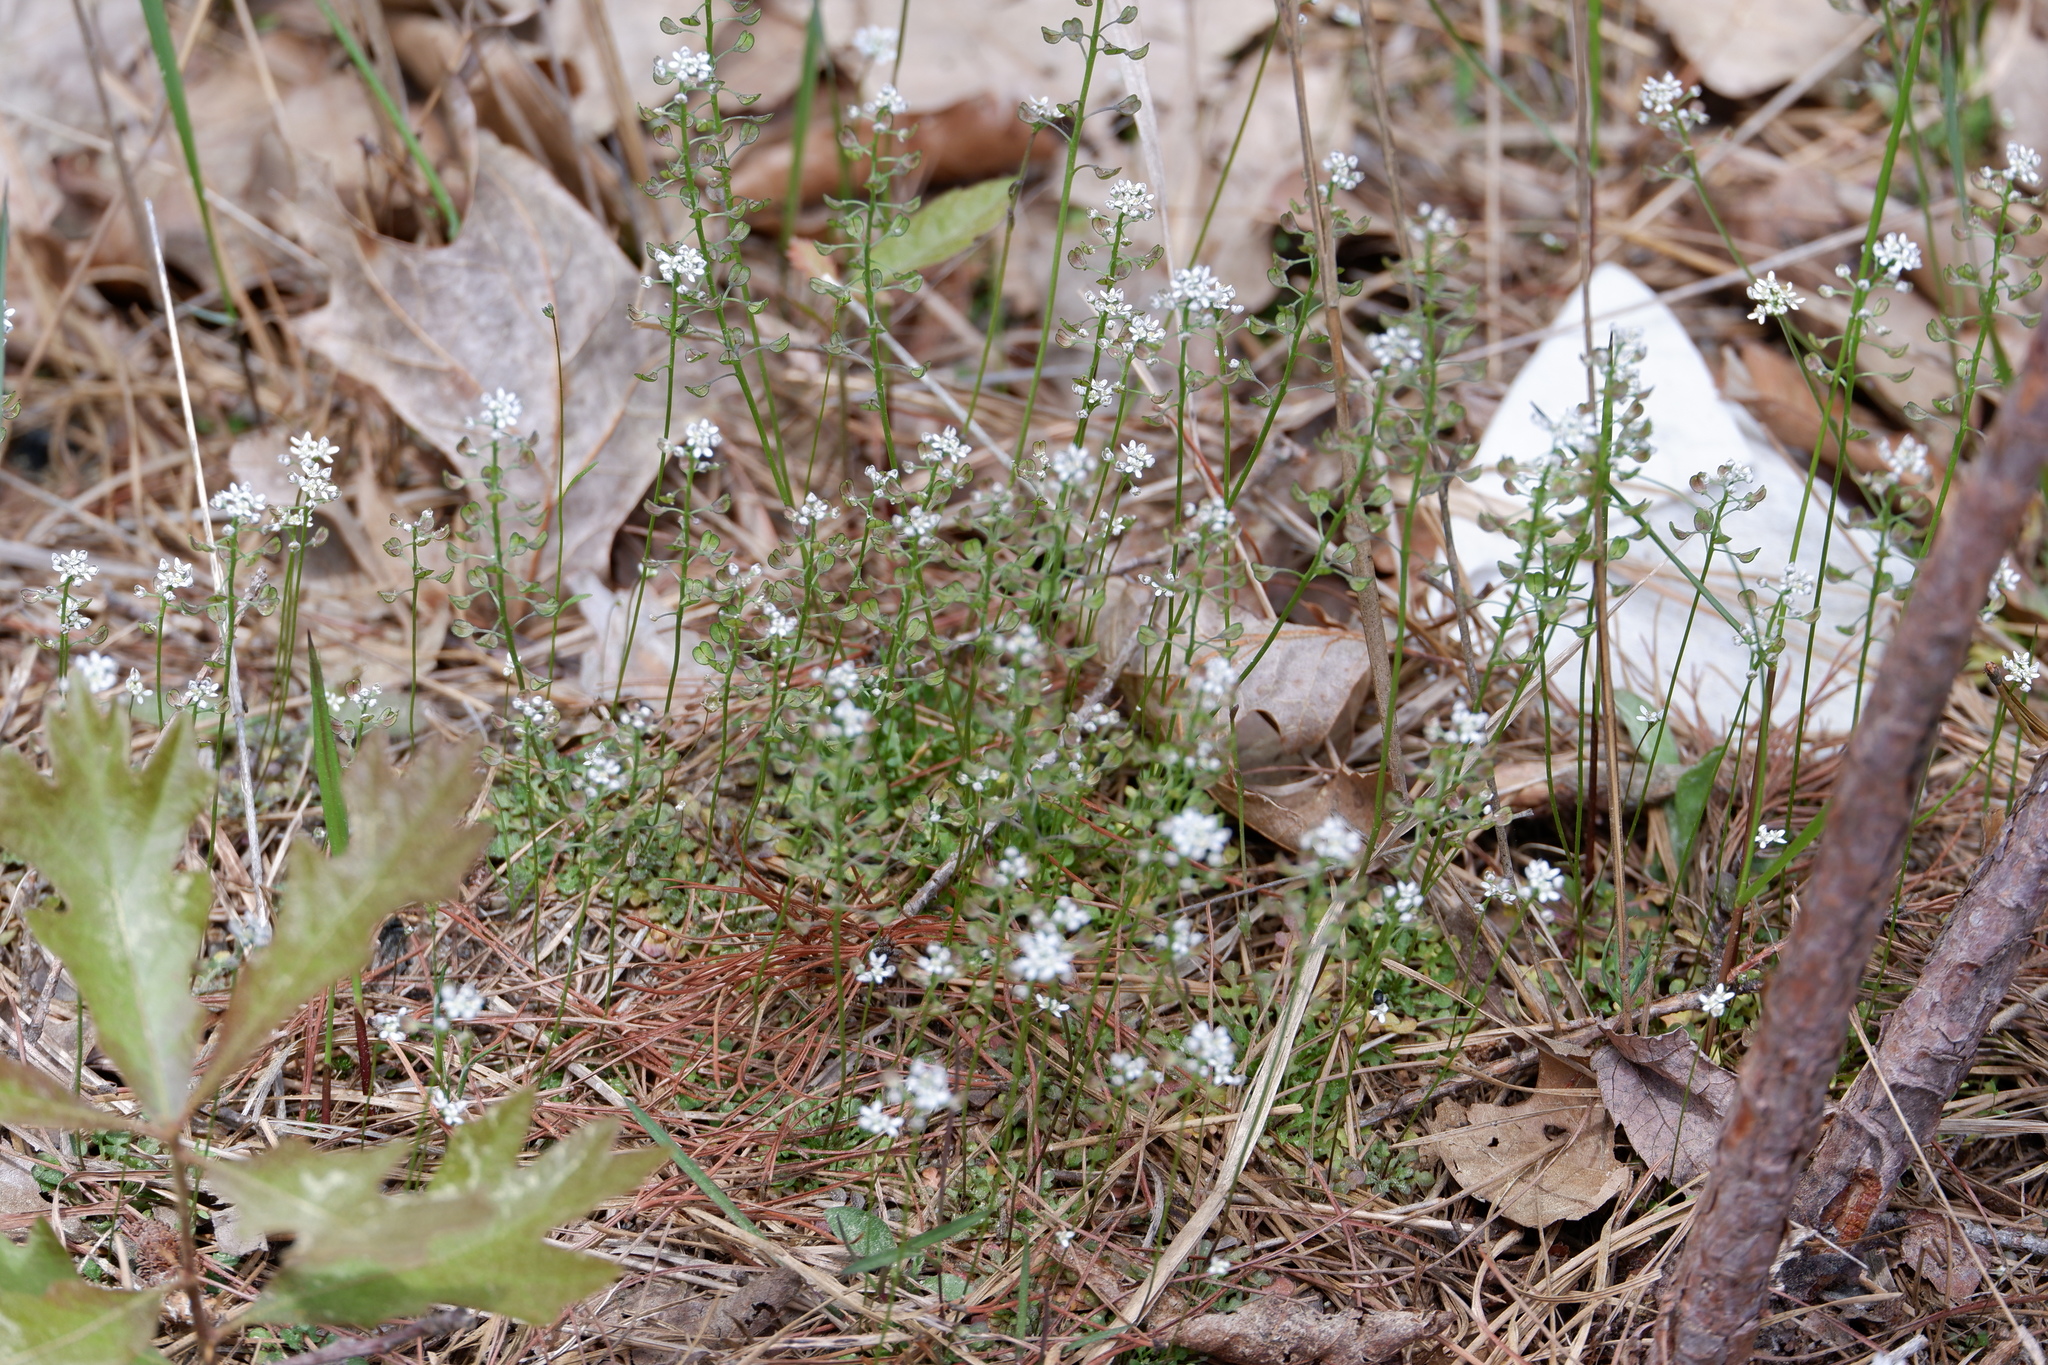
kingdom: Plantae
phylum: Tracheophyta
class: Magnoliopsida
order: Brassicales
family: Brassicaceae
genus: Teesdalia
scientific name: Teesdalia nudicaulis
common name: Shepherd's cress
